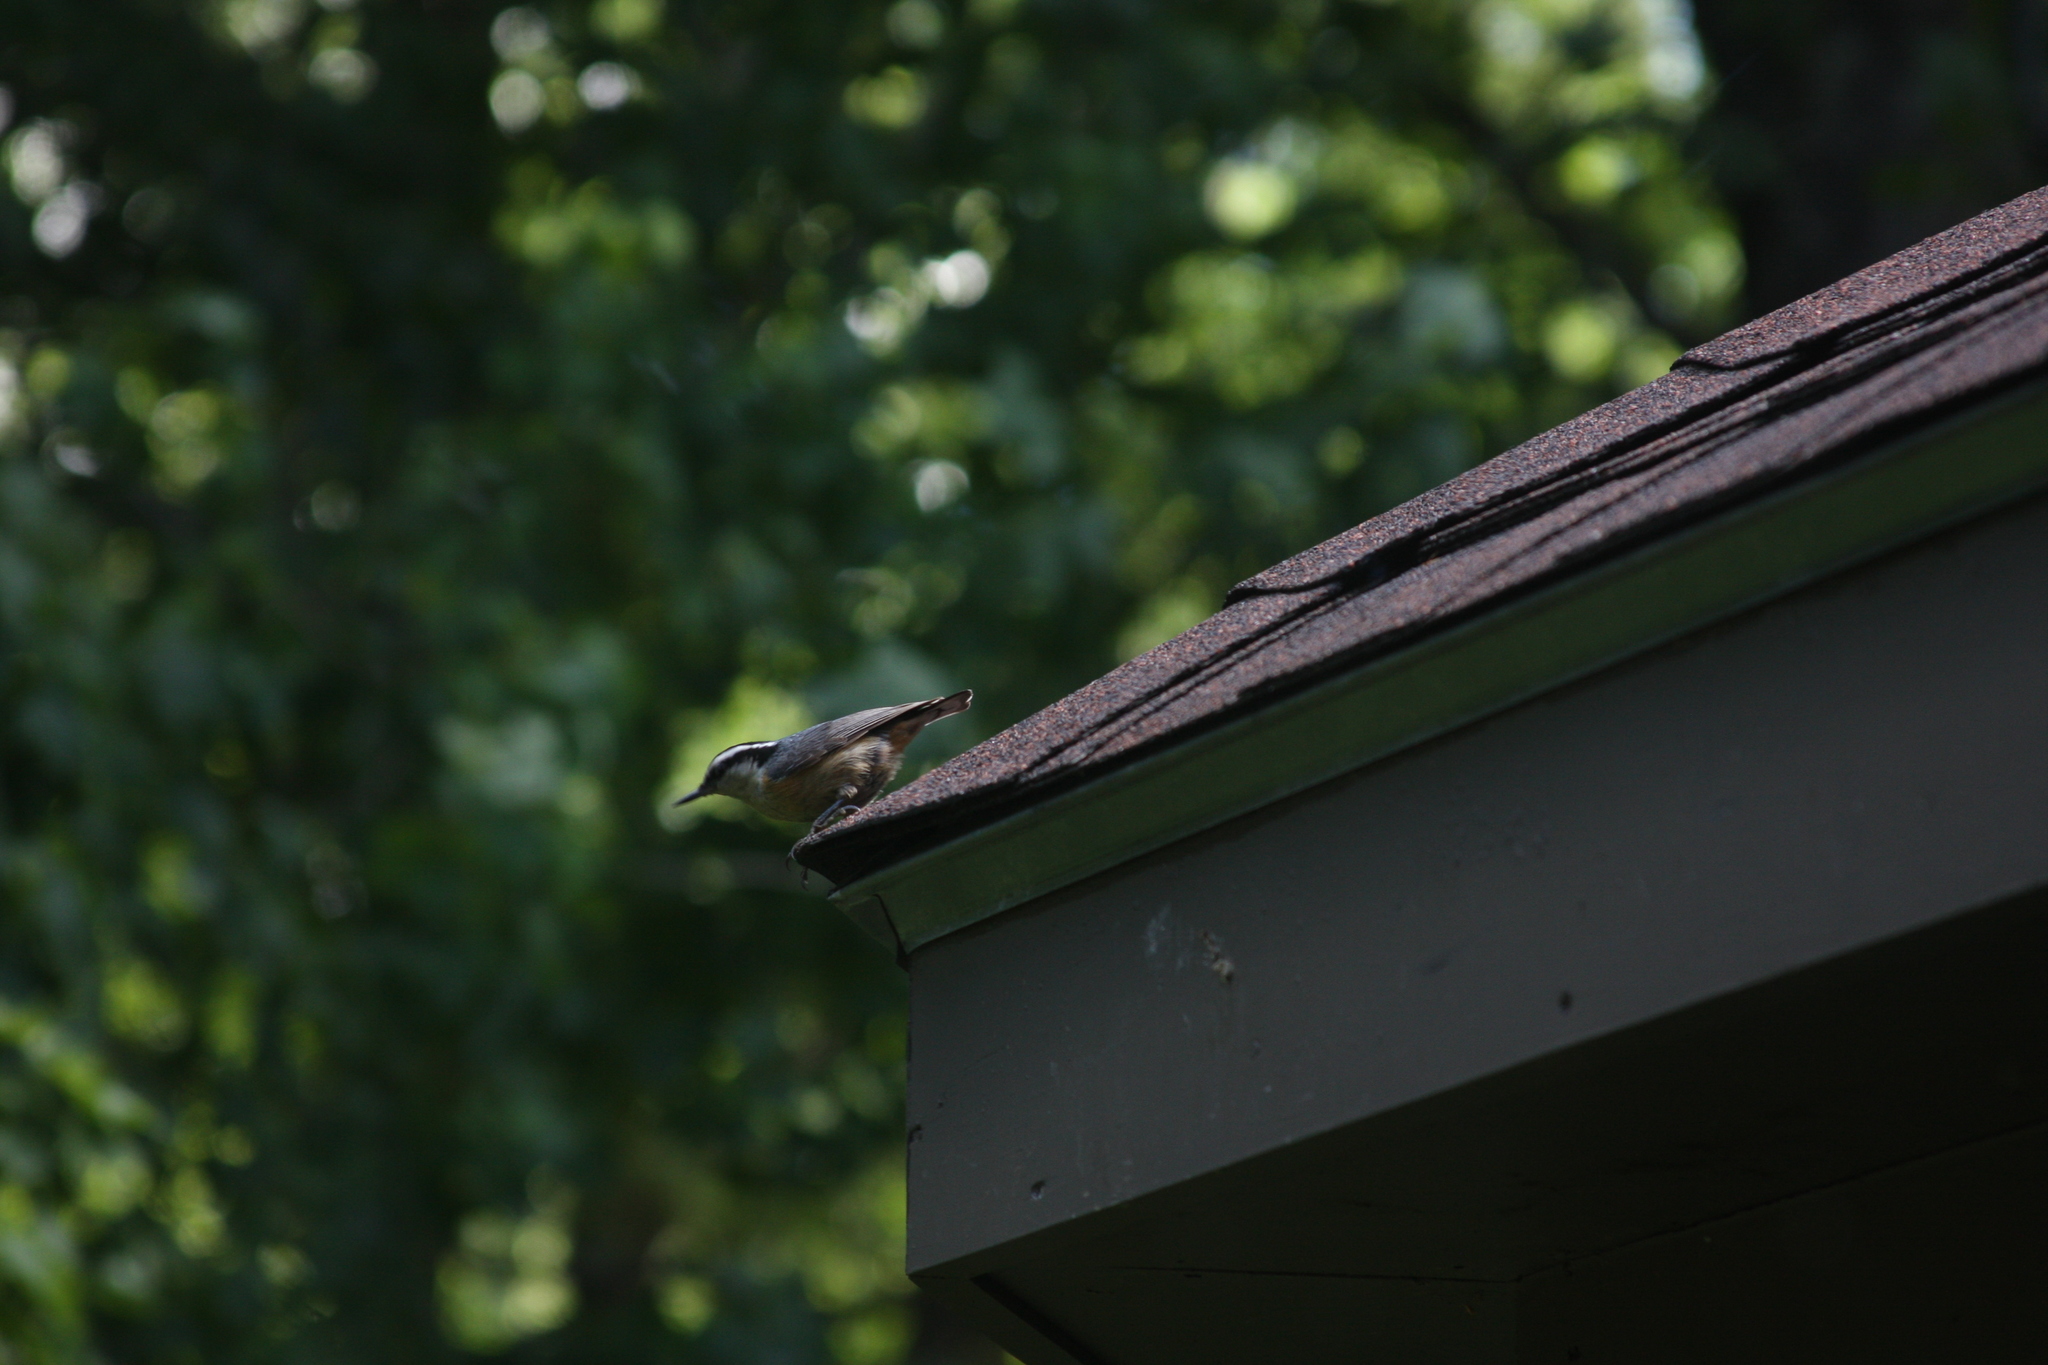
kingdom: Animalia
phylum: Chordata
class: Aves
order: Passeriformes
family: Sittidae
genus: Sitta
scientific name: Sitta canadensis
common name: Red-breasted nuthatch
